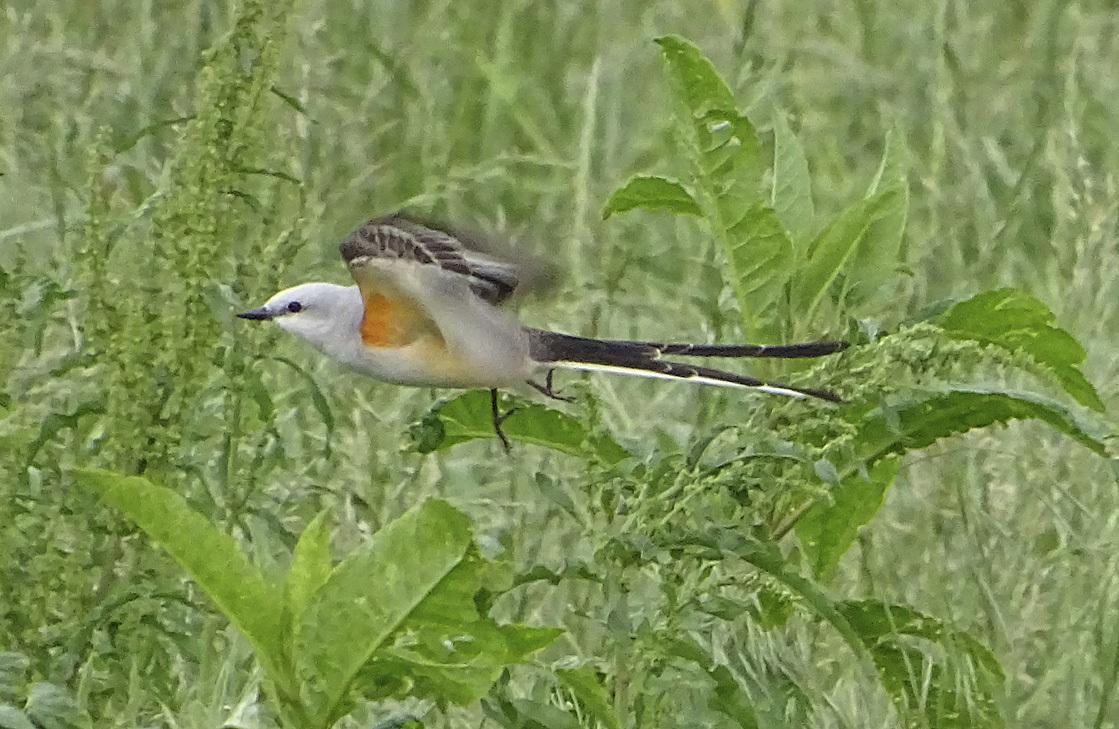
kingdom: Animalia
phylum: Chordata
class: Aves
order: Passeriformes
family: Tyrannidae
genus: Tyrannus
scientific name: Tyrannus forficatus
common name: Scissor-tailed flycatcher
